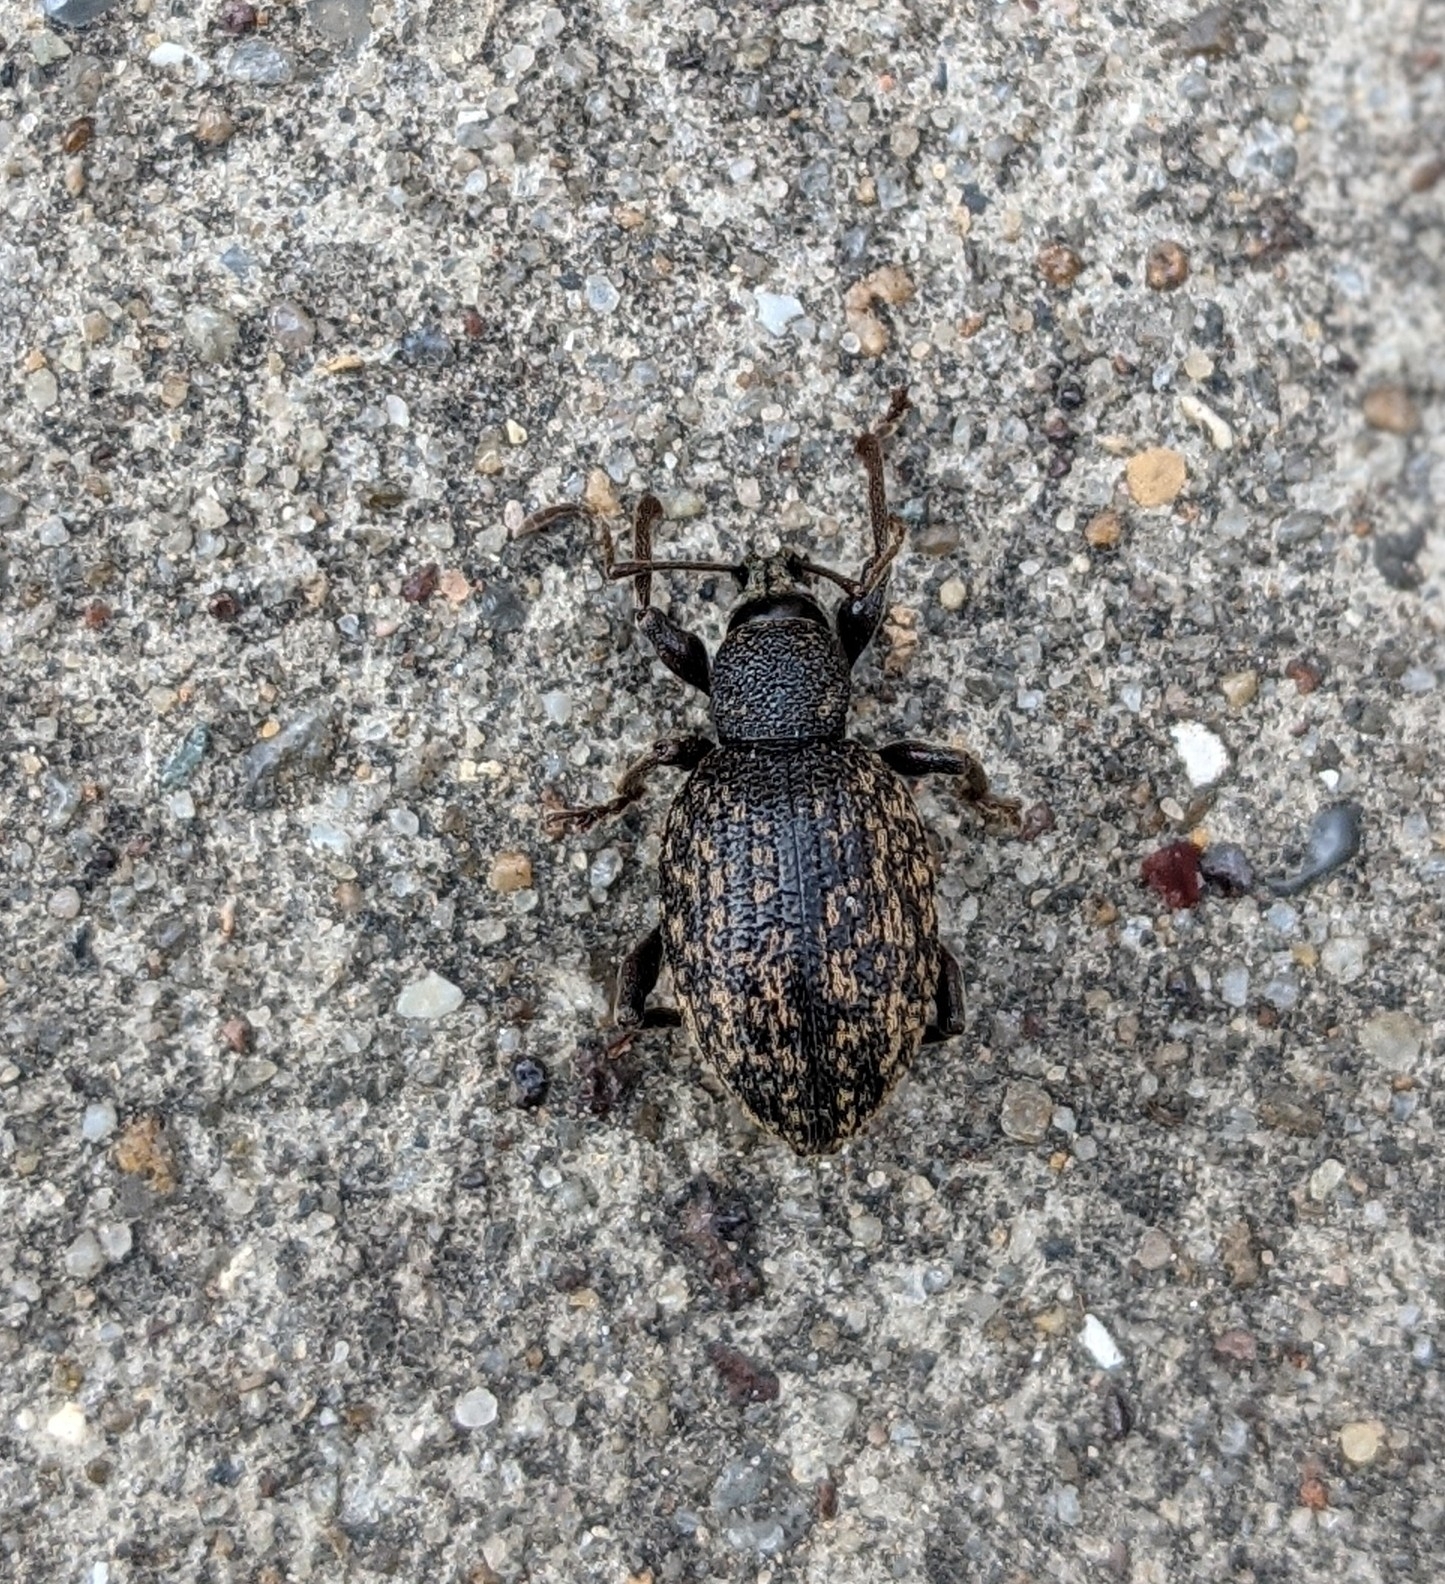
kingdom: Animalia
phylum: Arthropoda
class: Insecta
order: Coleoptera
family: Curculionidae
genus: Otiorhynchus
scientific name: Otiorhynchus sulcatus
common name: Black vine weevil
